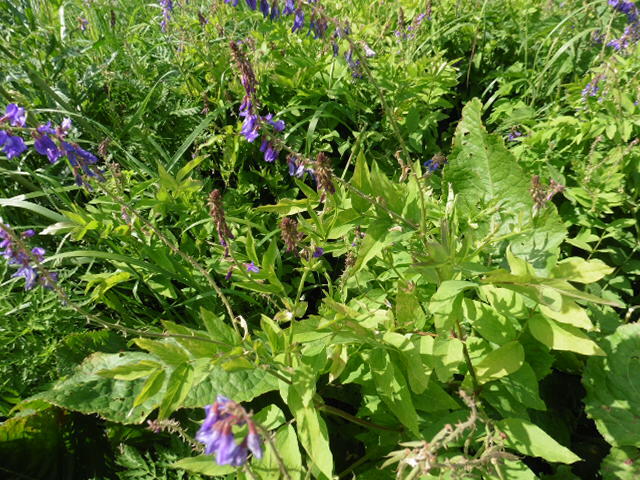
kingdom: Plantae
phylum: Tracheophyta
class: Magnoliopsida
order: Fabales
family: Fabaceae
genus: Galega
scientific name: Galega orientalis
